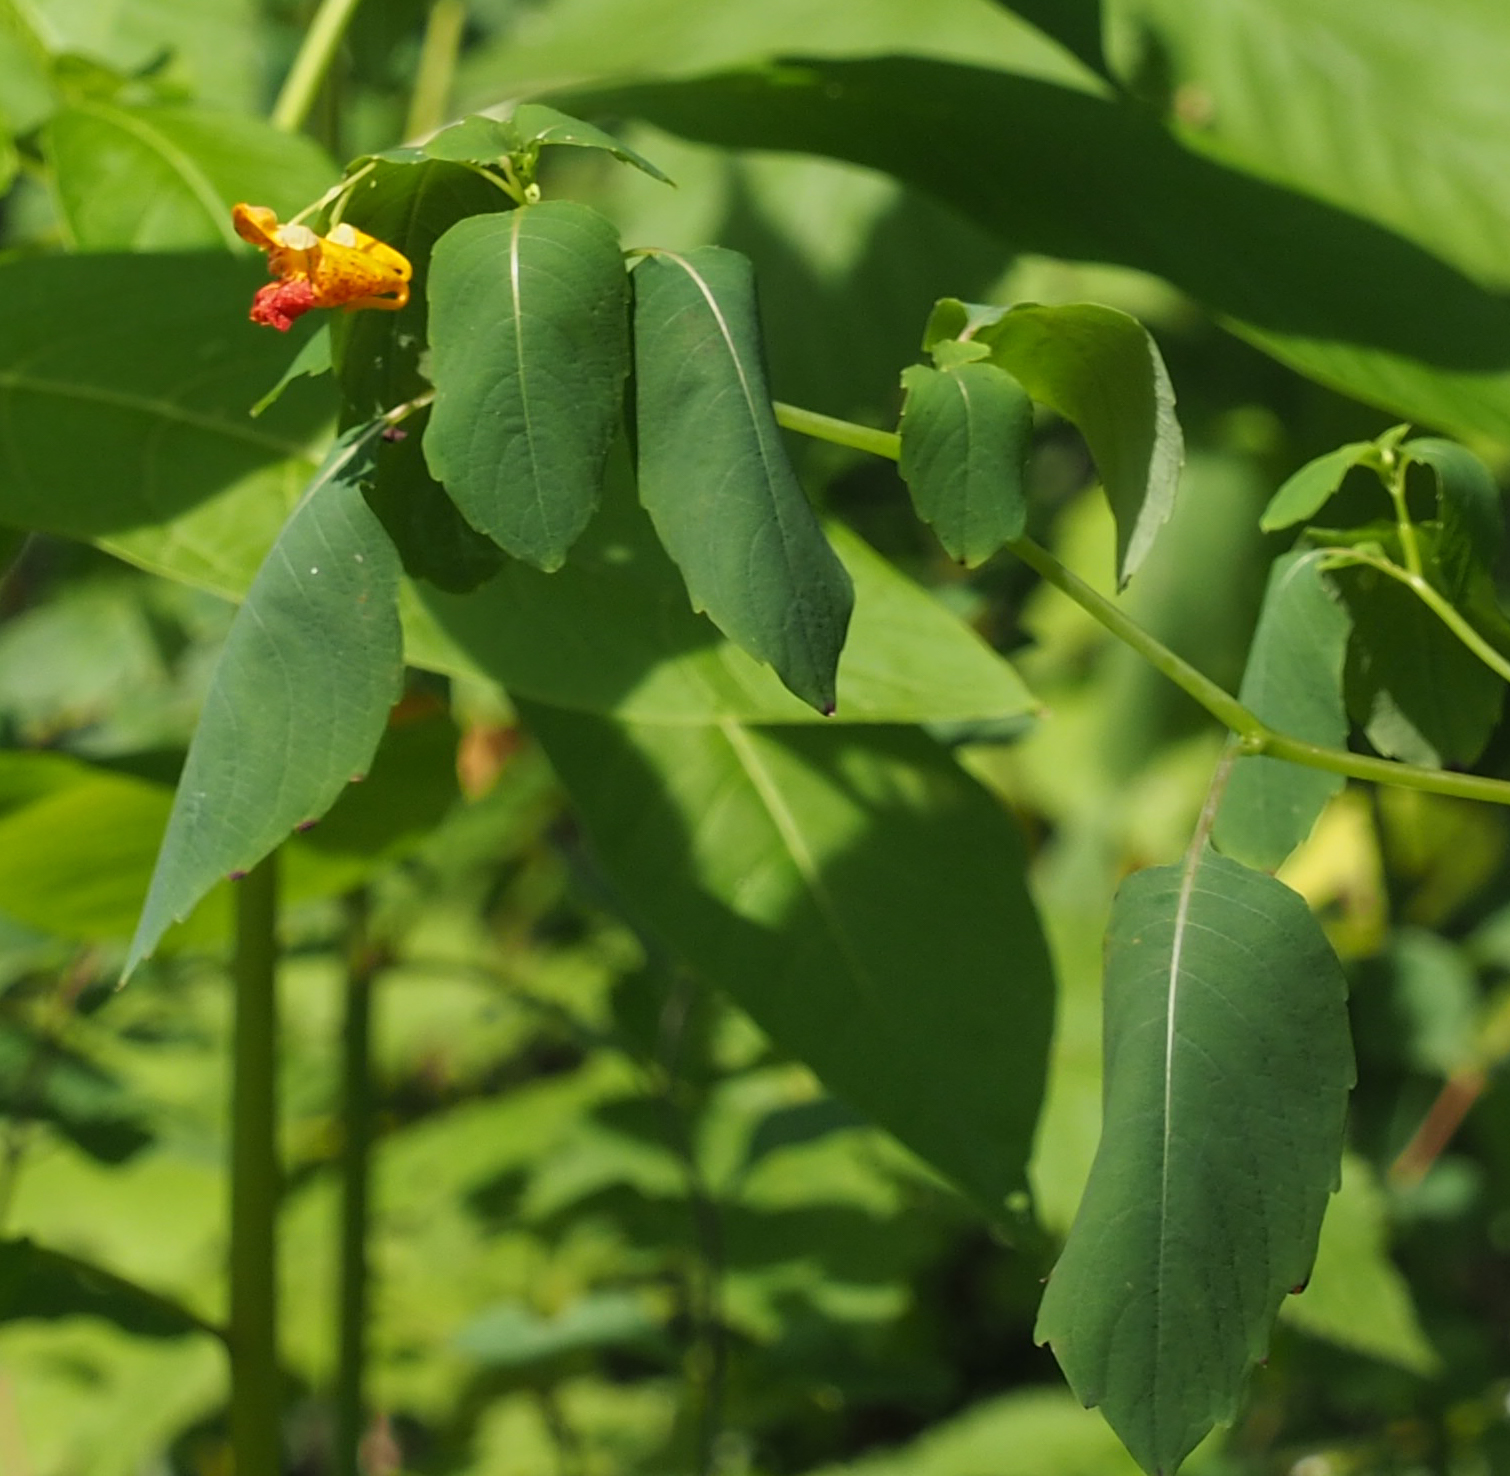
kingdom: Plantae
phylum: Tracheophyta
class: Magnoliopsida
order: Ericales
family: Balsaminaceae
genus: Impatiens
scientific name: Impatiens capensis
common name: Orange balsam
